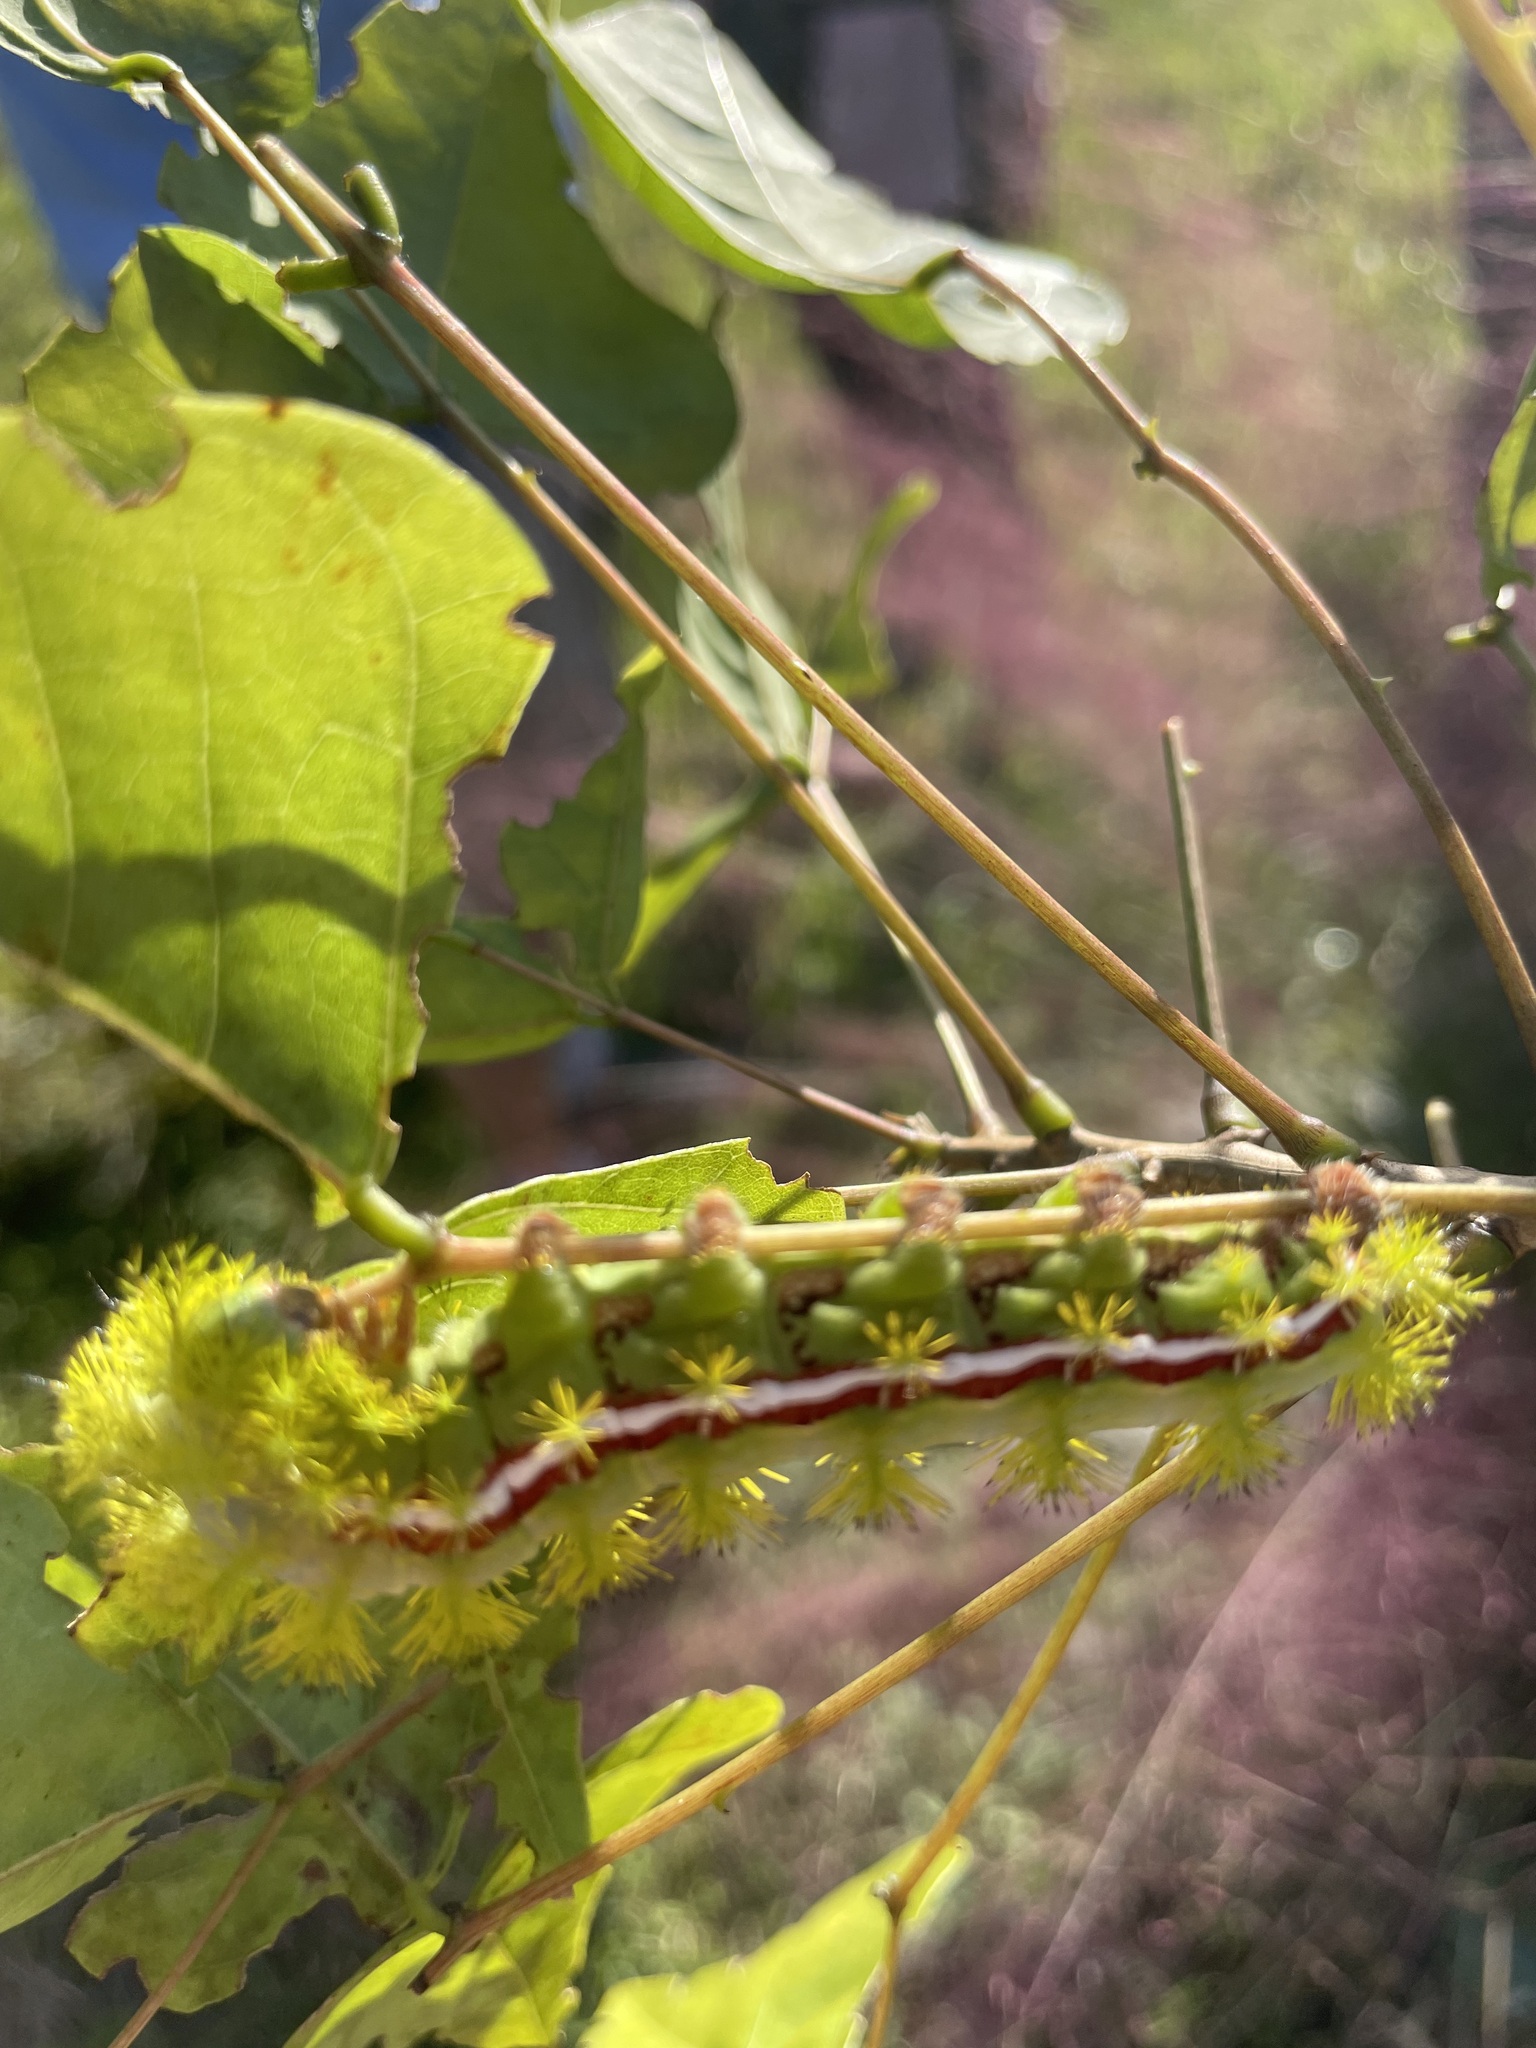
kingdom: Animalia
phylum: Arthropoda
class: Insecta
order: Lepidoptera
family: Saturniidae
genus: Automeris
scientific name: Automeris io
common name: Io moth
